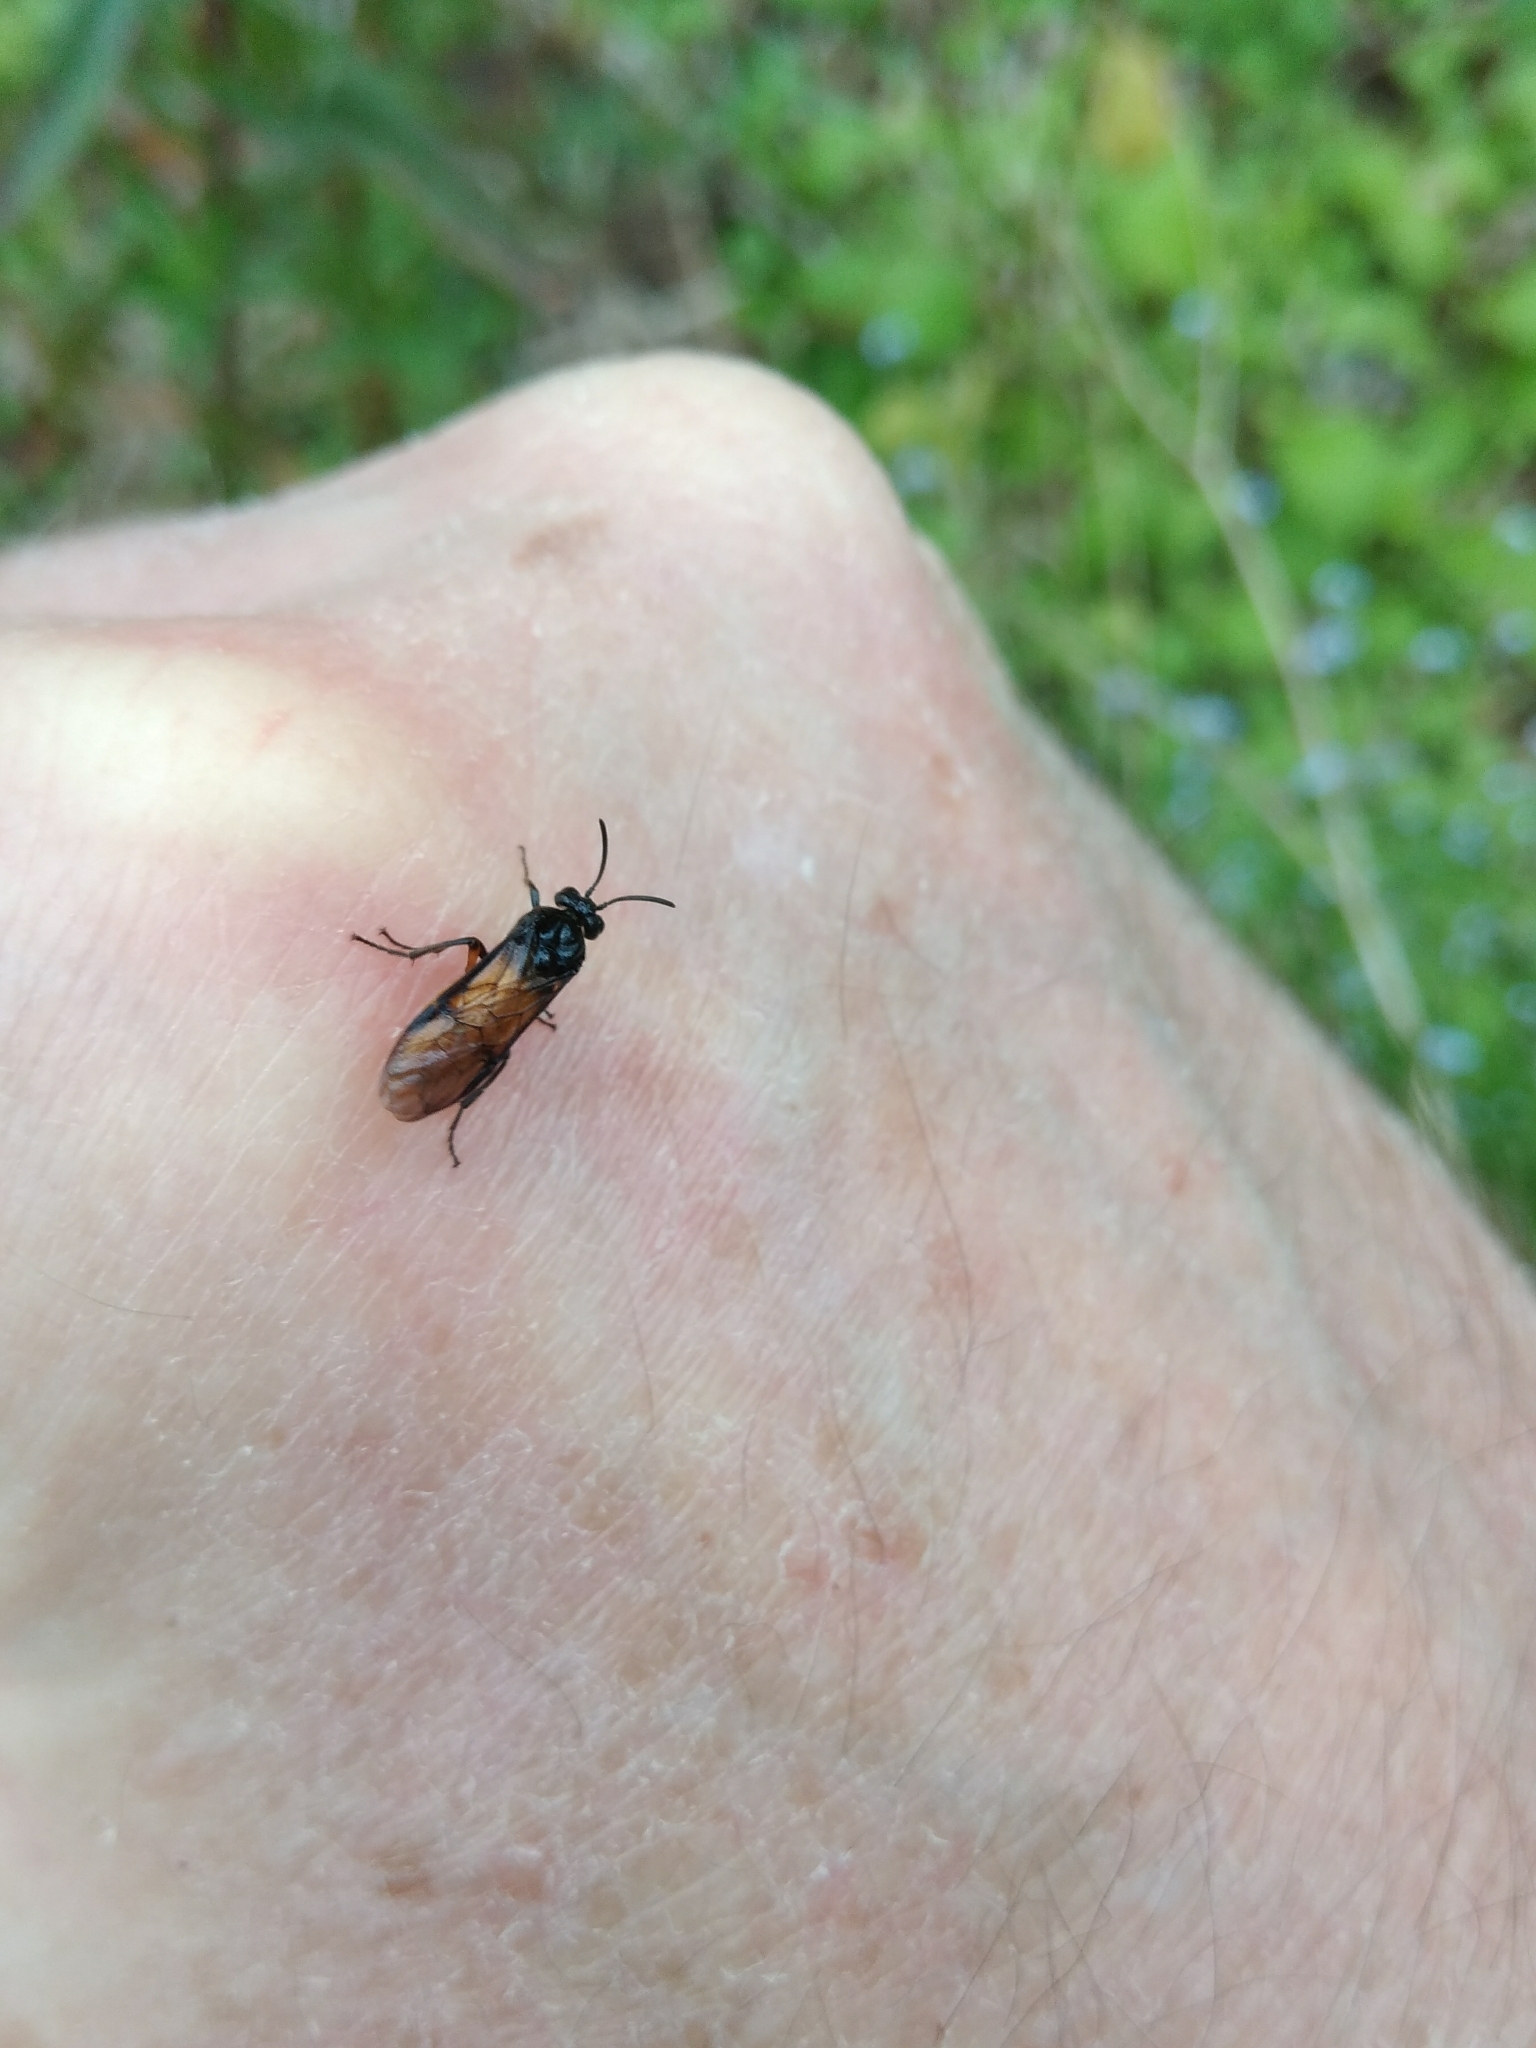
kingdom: Animalia
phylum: Arthropoda
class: Insecta
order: Hymenoptera
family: Argidae
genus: Arge
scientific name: Arge pagana
